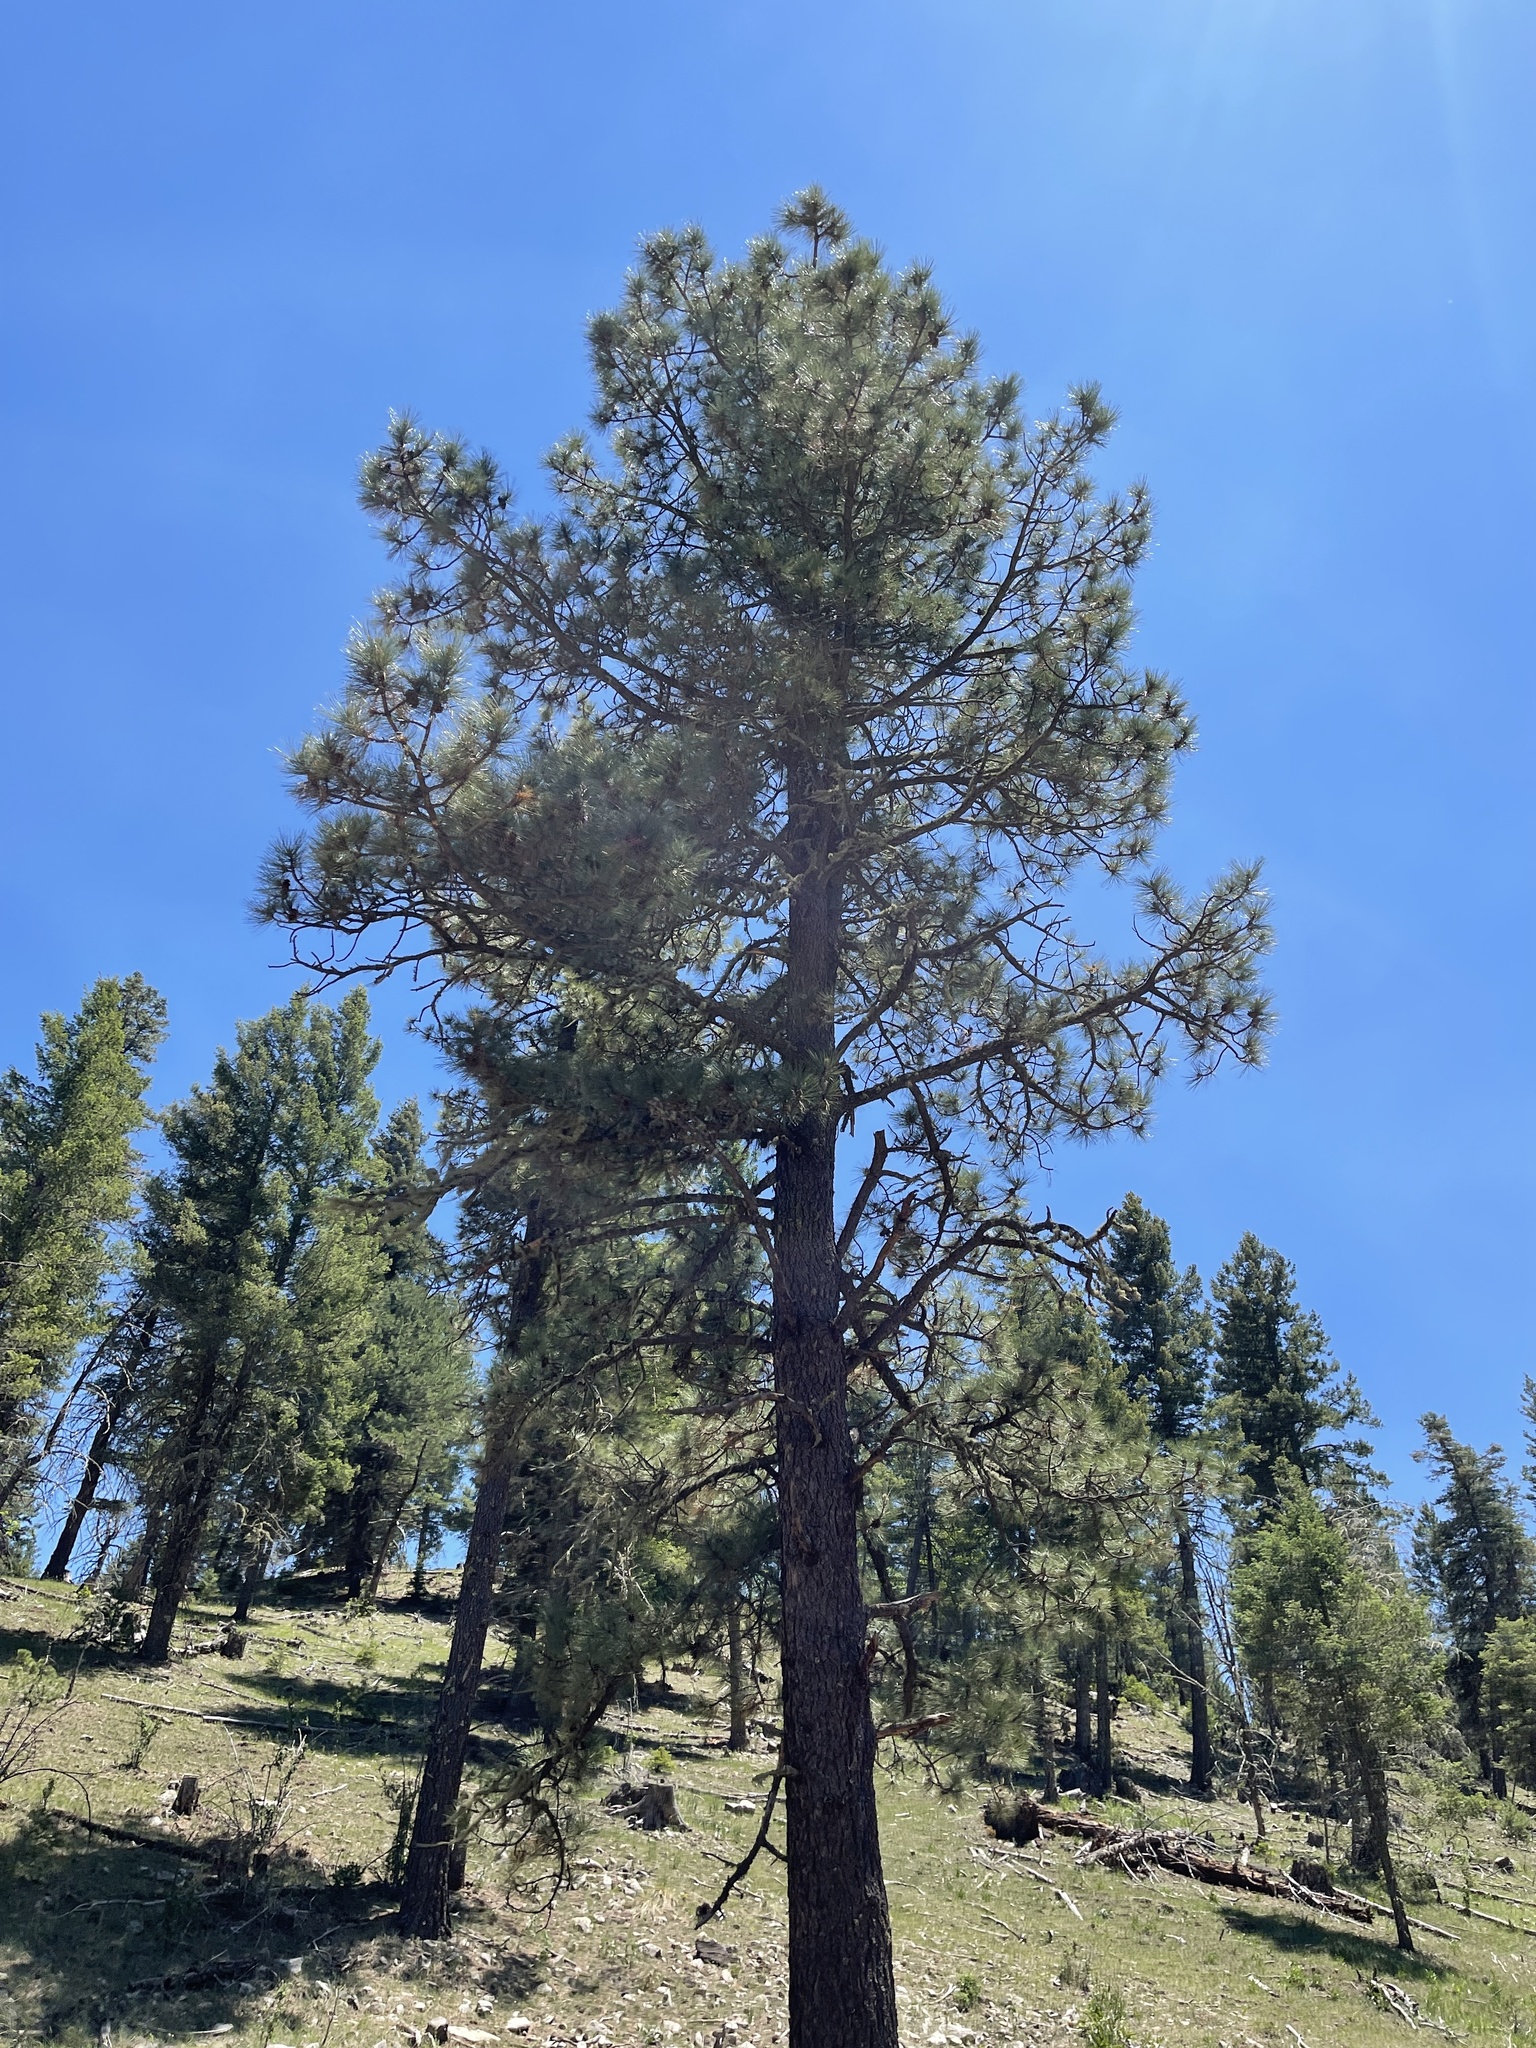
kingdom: Plantae
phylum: Tracheophyta
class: Pinopsida
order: Pinales
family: Pinaceae
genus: Pinus
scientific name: Pinus ponderosa
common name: Western yellow-pine
